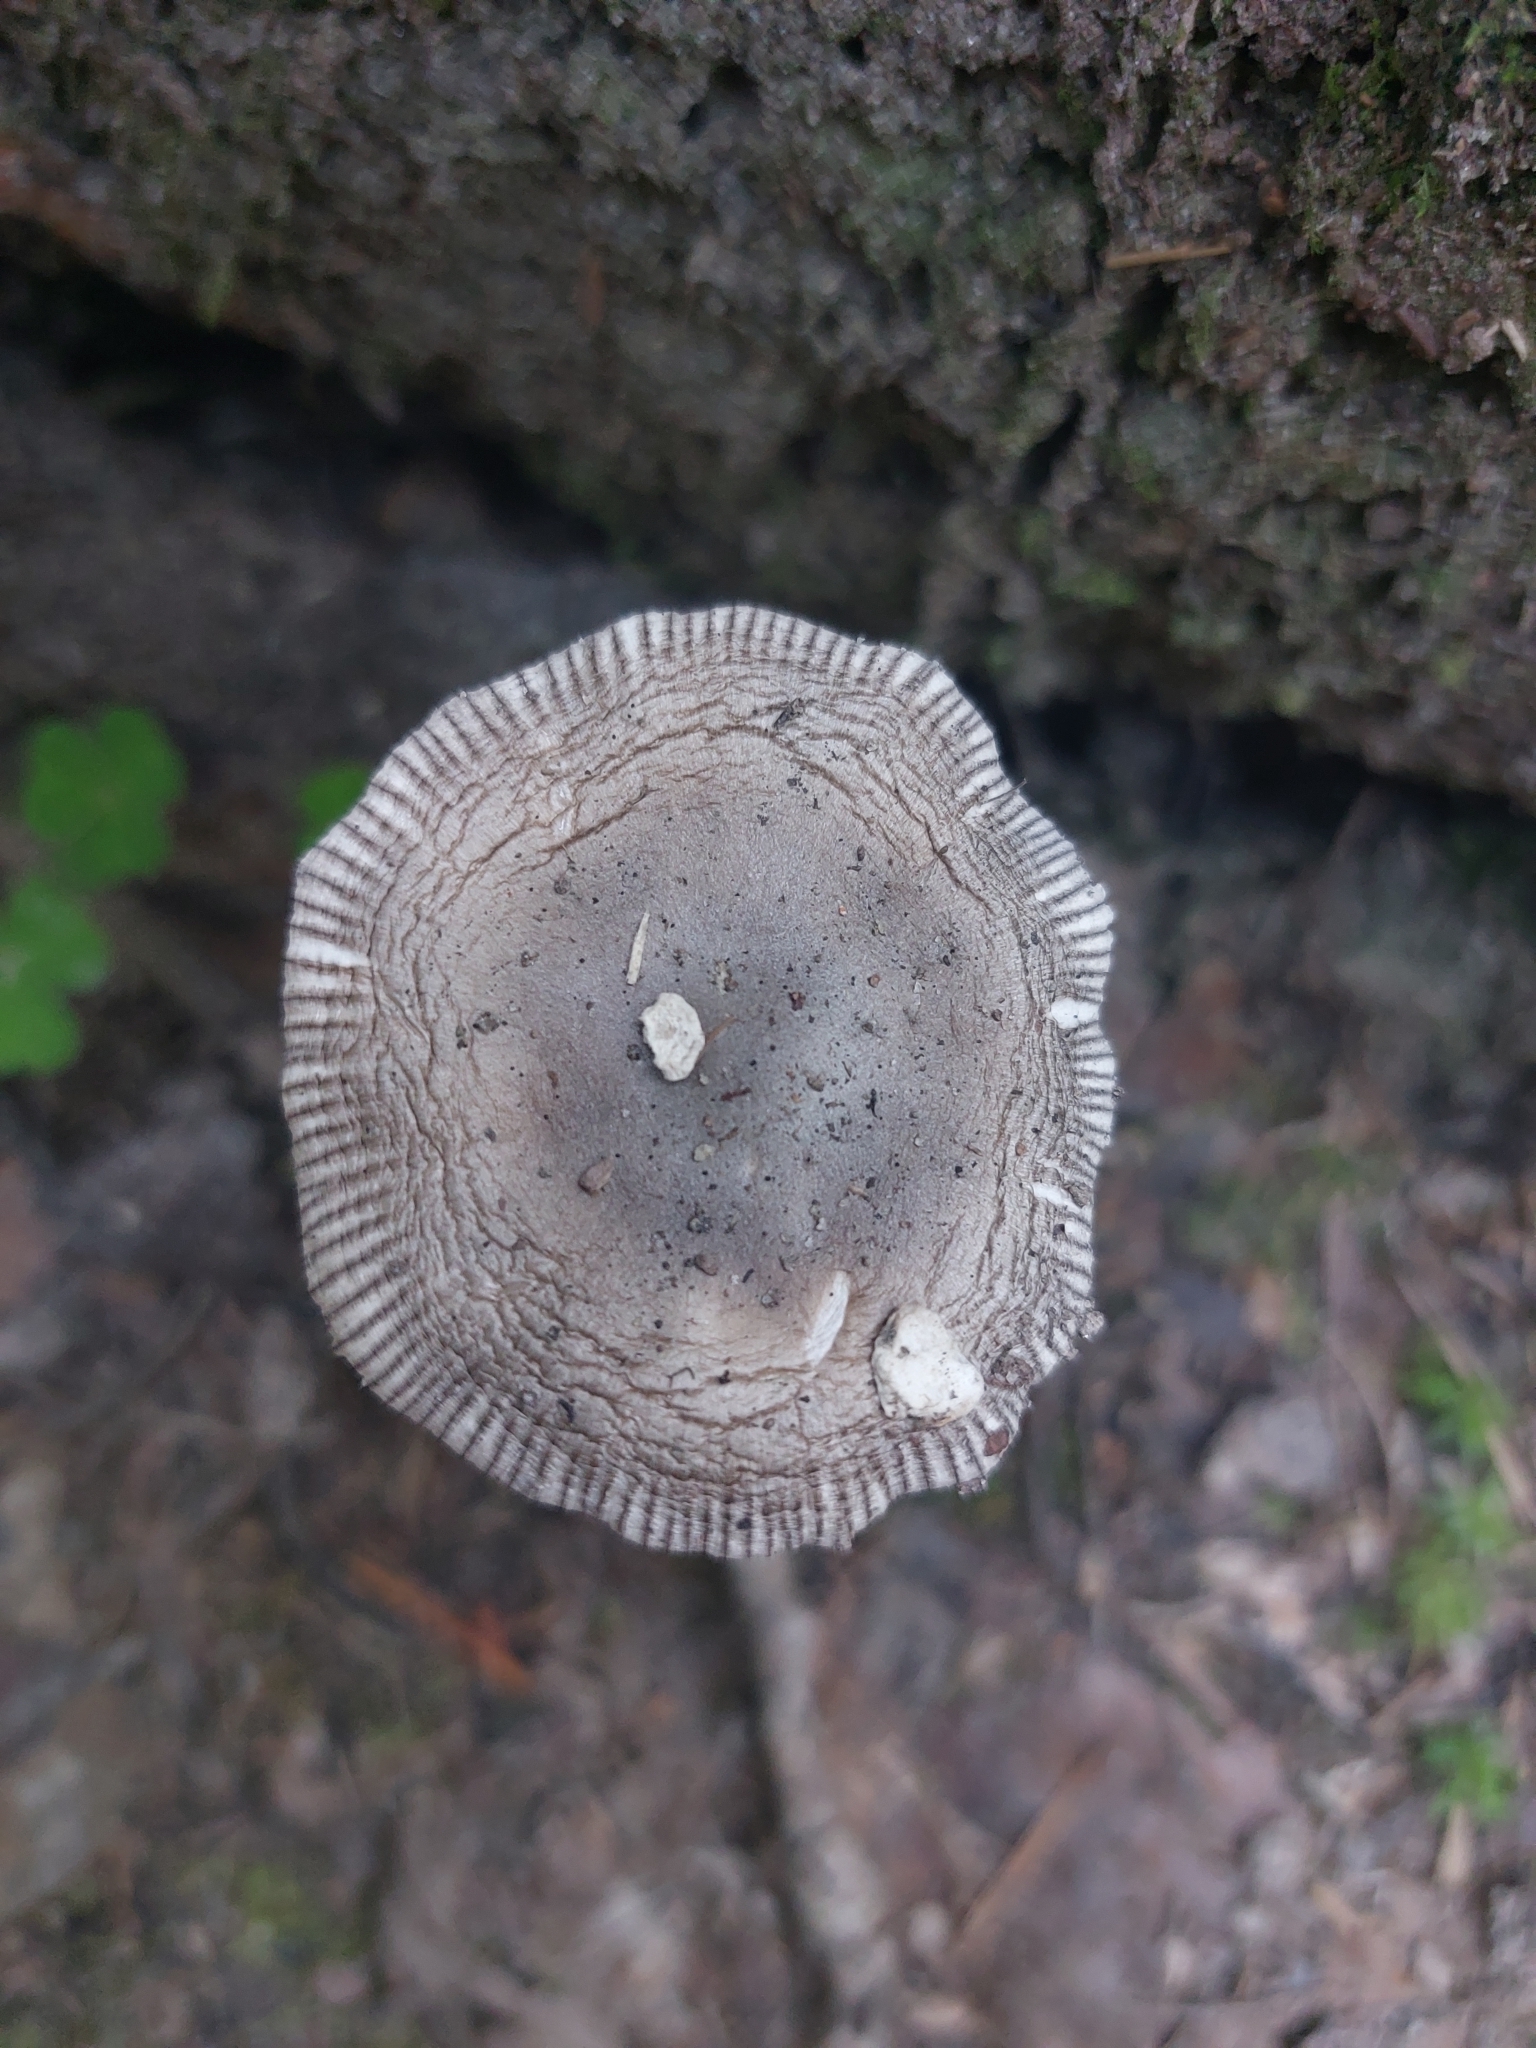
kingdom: Fungi
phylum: Basidiomycota
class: Agaricomycetes
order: Agaricales
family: Amanitaceae
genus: Amanita
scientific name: Amanita vaginata
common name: Grisette
